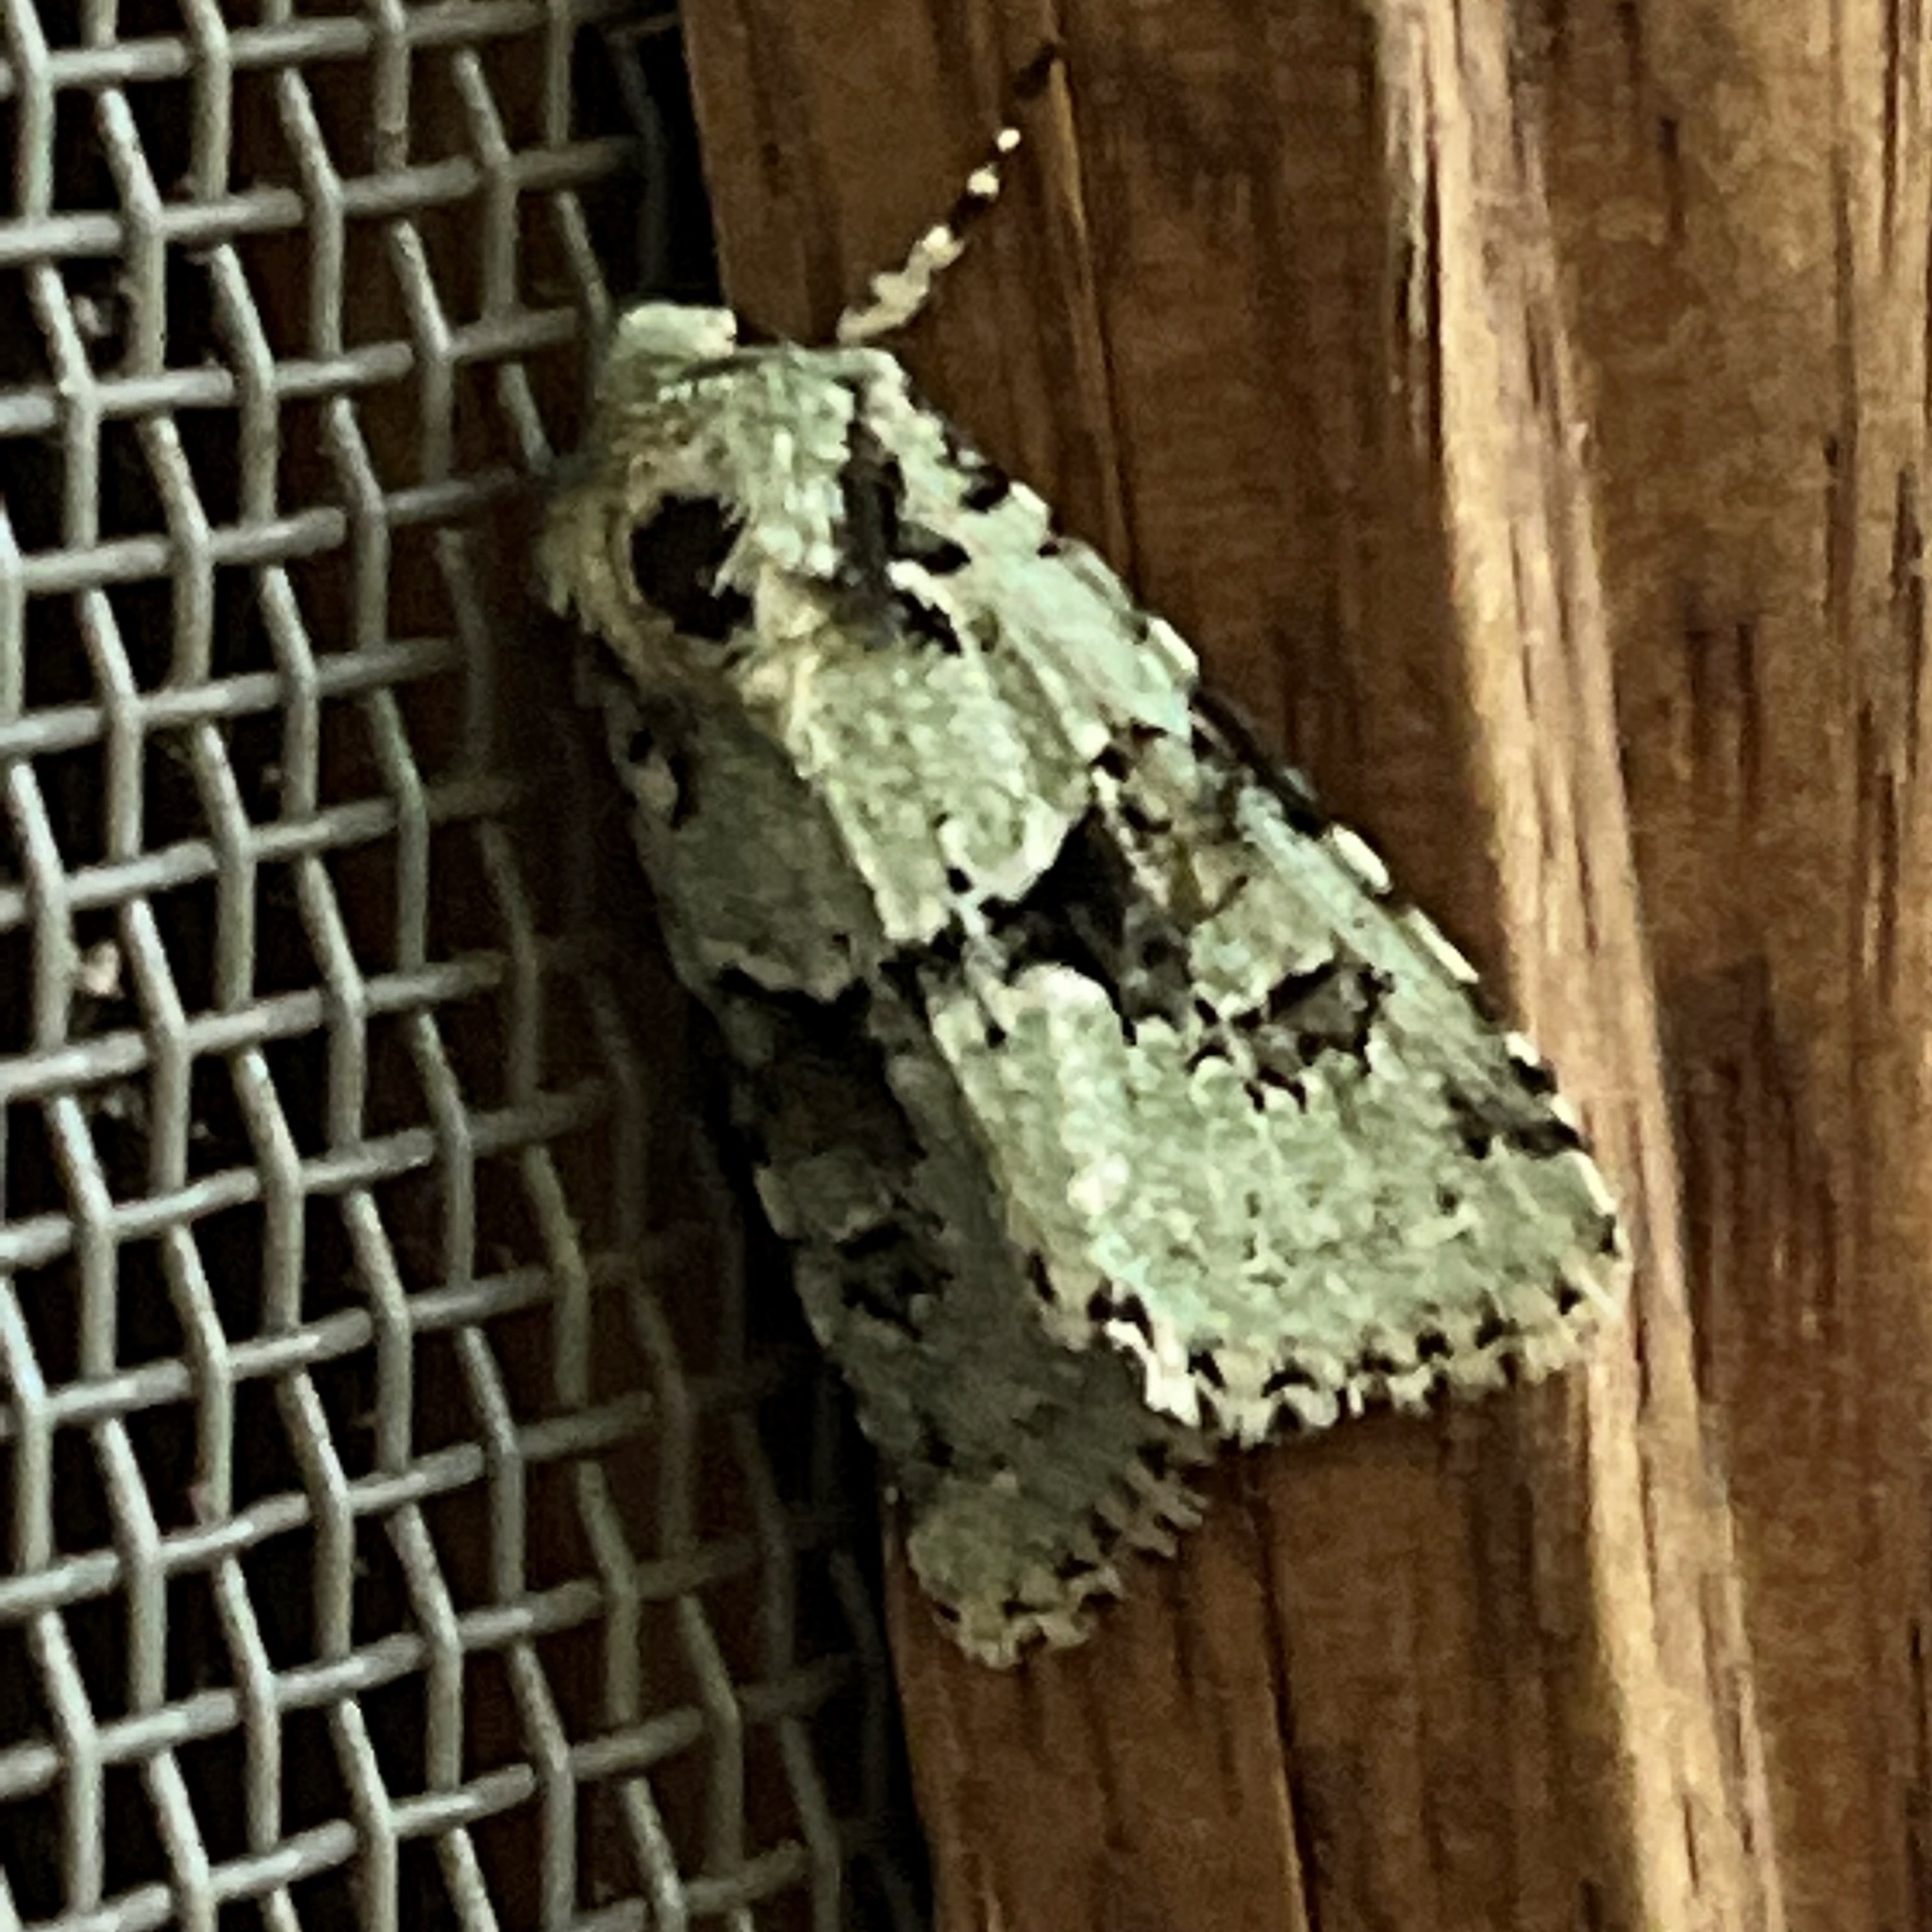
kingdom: Animalia
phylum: Arthropoda
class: Insecta
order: Lepidoptera
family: Noctuidae
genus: Lacinipolia
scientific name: Lacinipolia implicata
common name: Implicit arches
